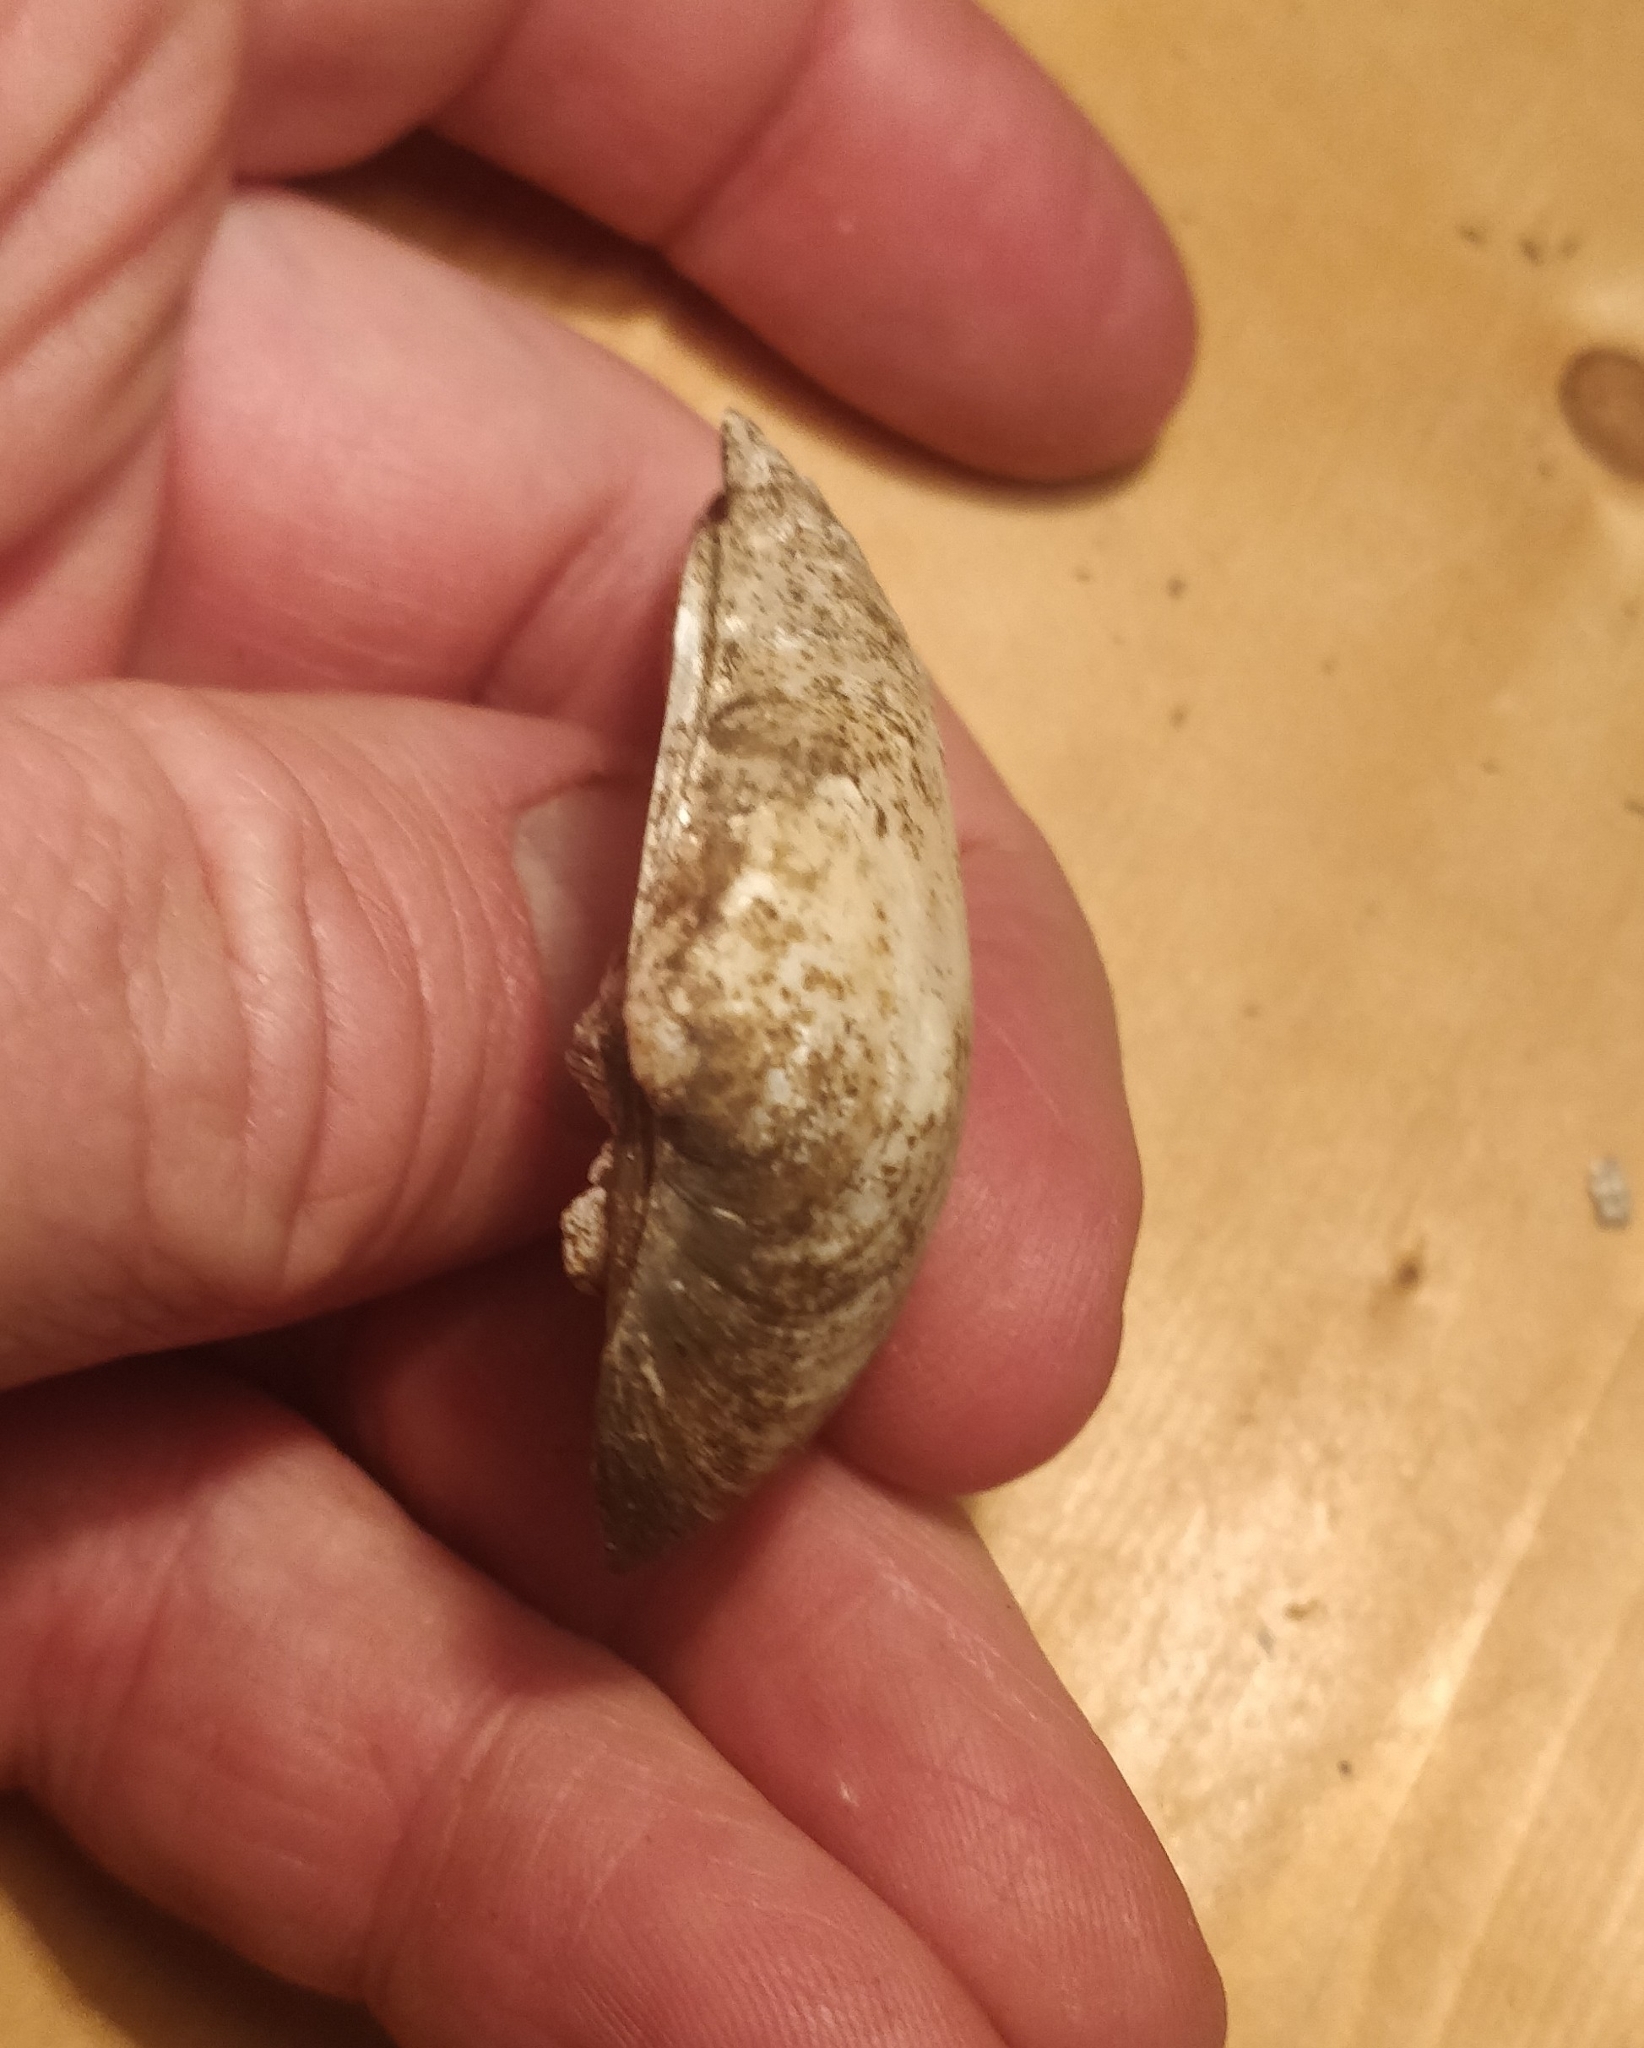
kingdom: Animalia
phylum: Mollusca
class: Bivalvia
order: Unionida
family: Unionidae
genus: Fusconaia
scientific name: Fusconaia flava
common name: Wabash pigtoe
